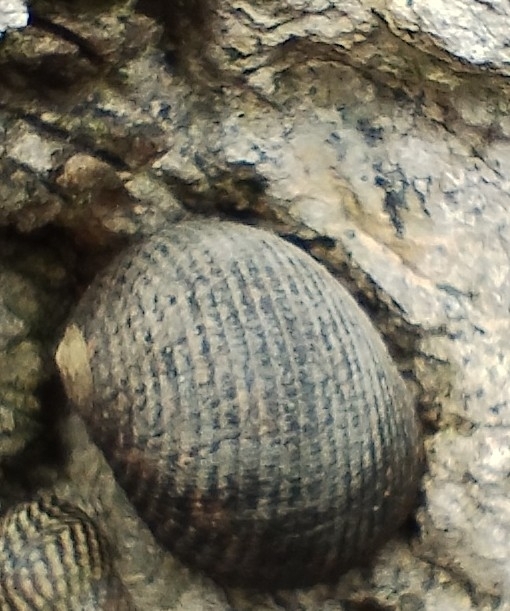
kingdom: Animalia
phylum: Mollusca
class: Gastropoda
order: Cycloneritida
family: Neritidae
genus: Nerita
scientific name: Nerita scabricosta
